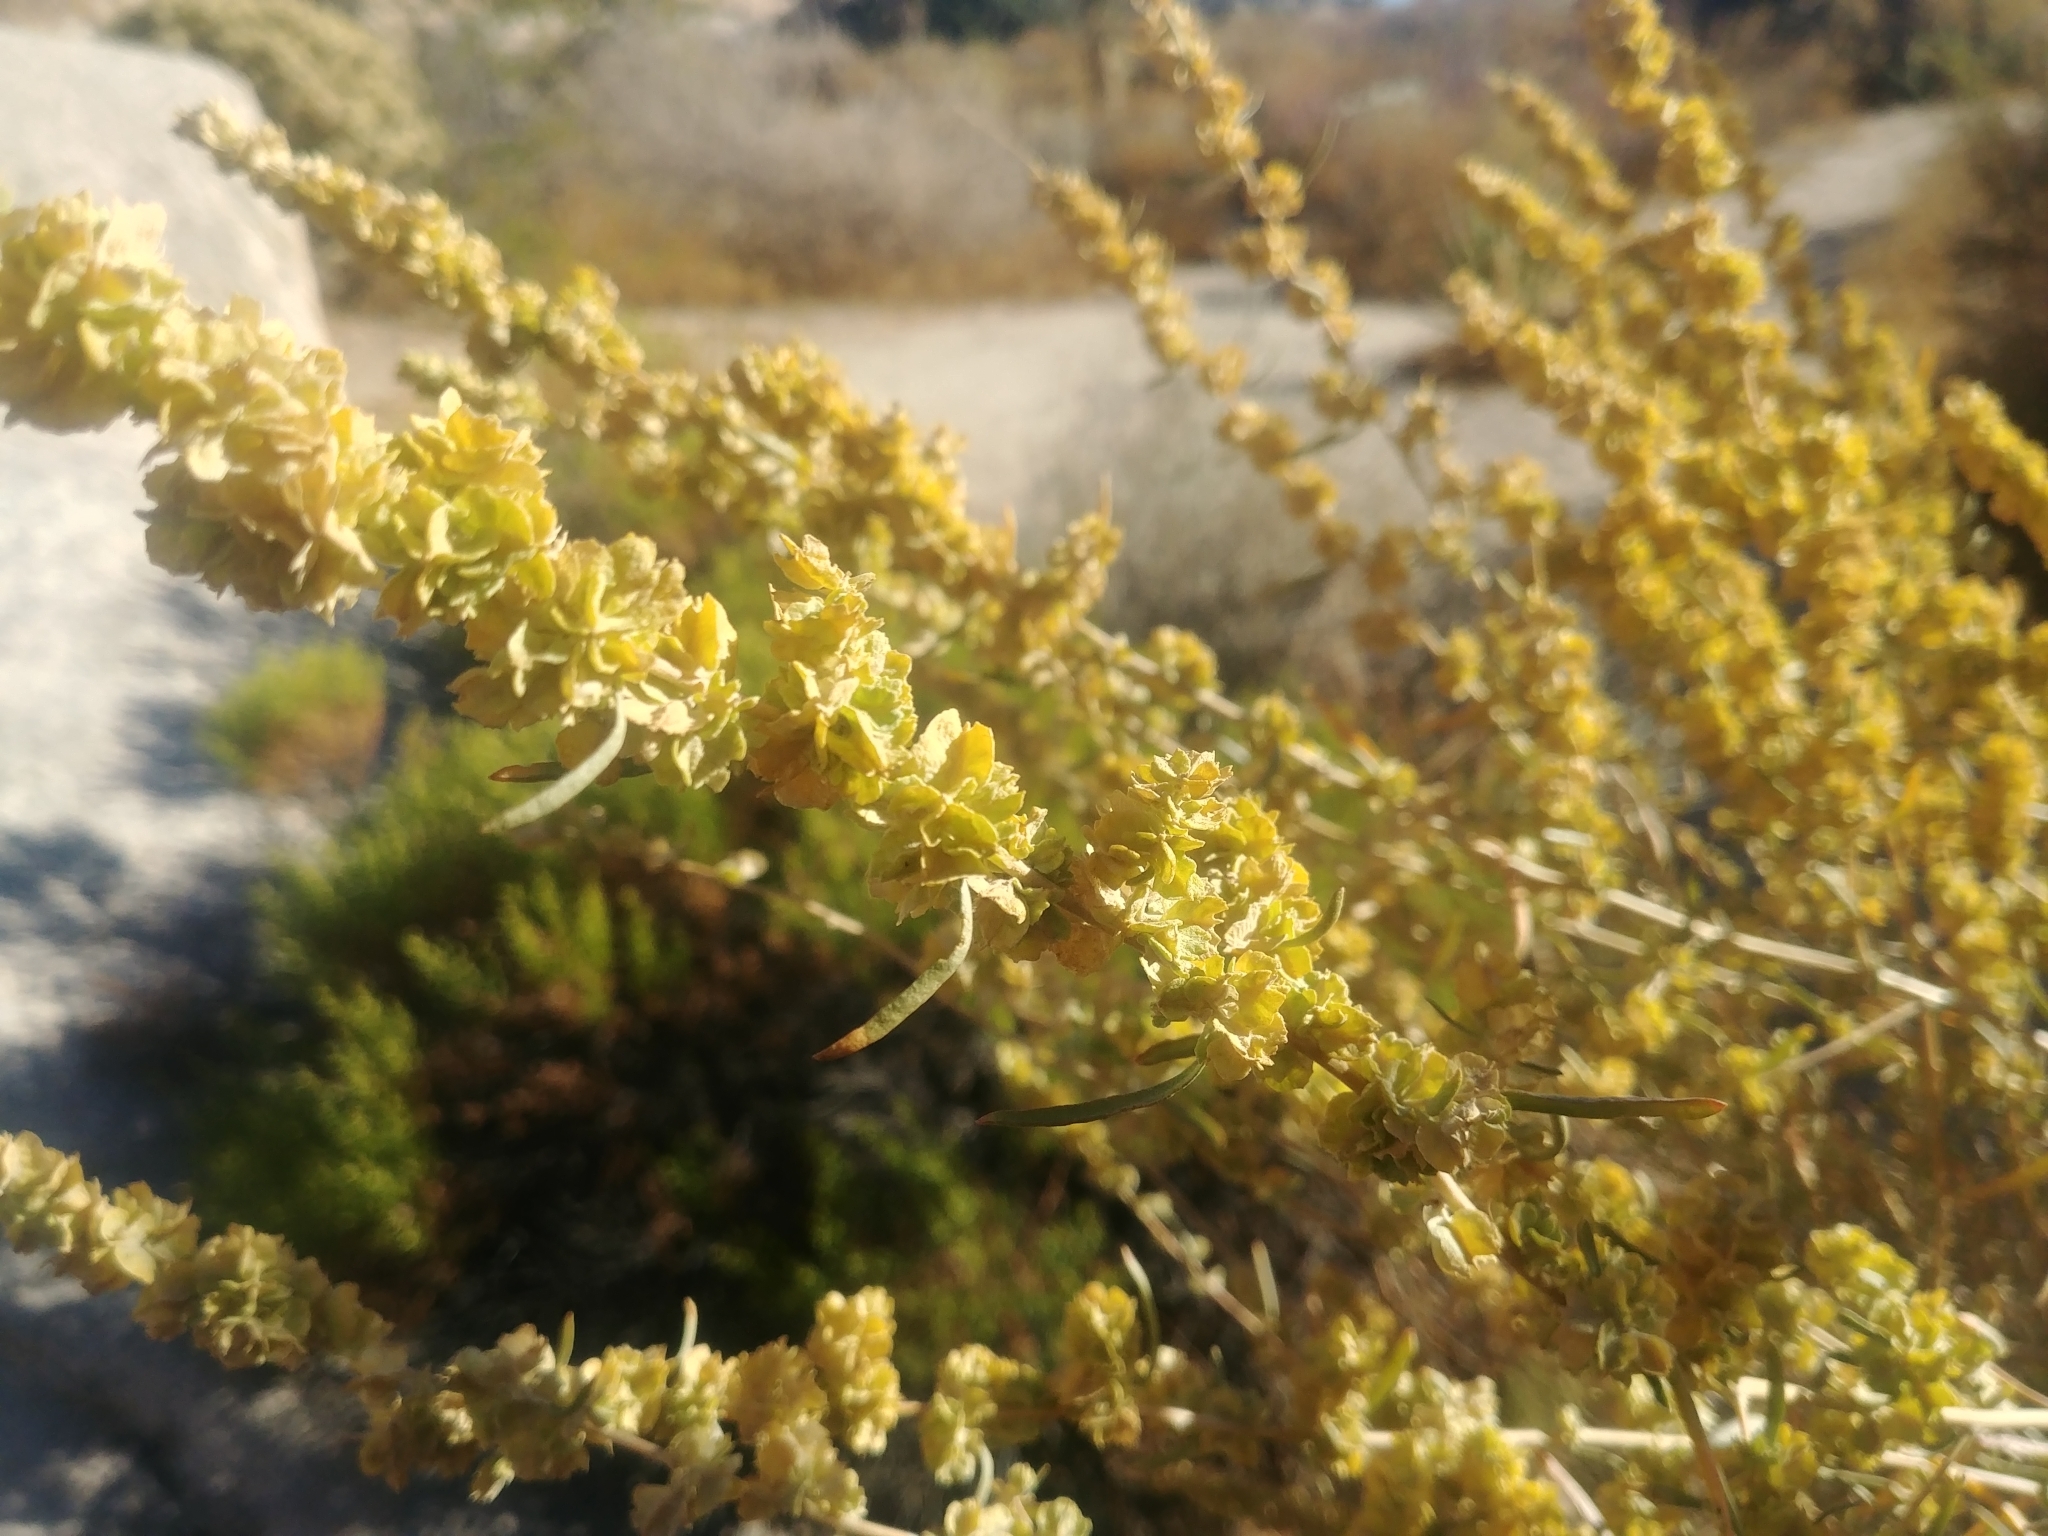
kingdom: Plantae
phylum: Tracheophyta
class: Magnoliopsida
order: Caryophyllales
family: Amaranthaceae
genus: Atriplex
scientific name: Atriplex canescens
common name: Four-wing saltbush
